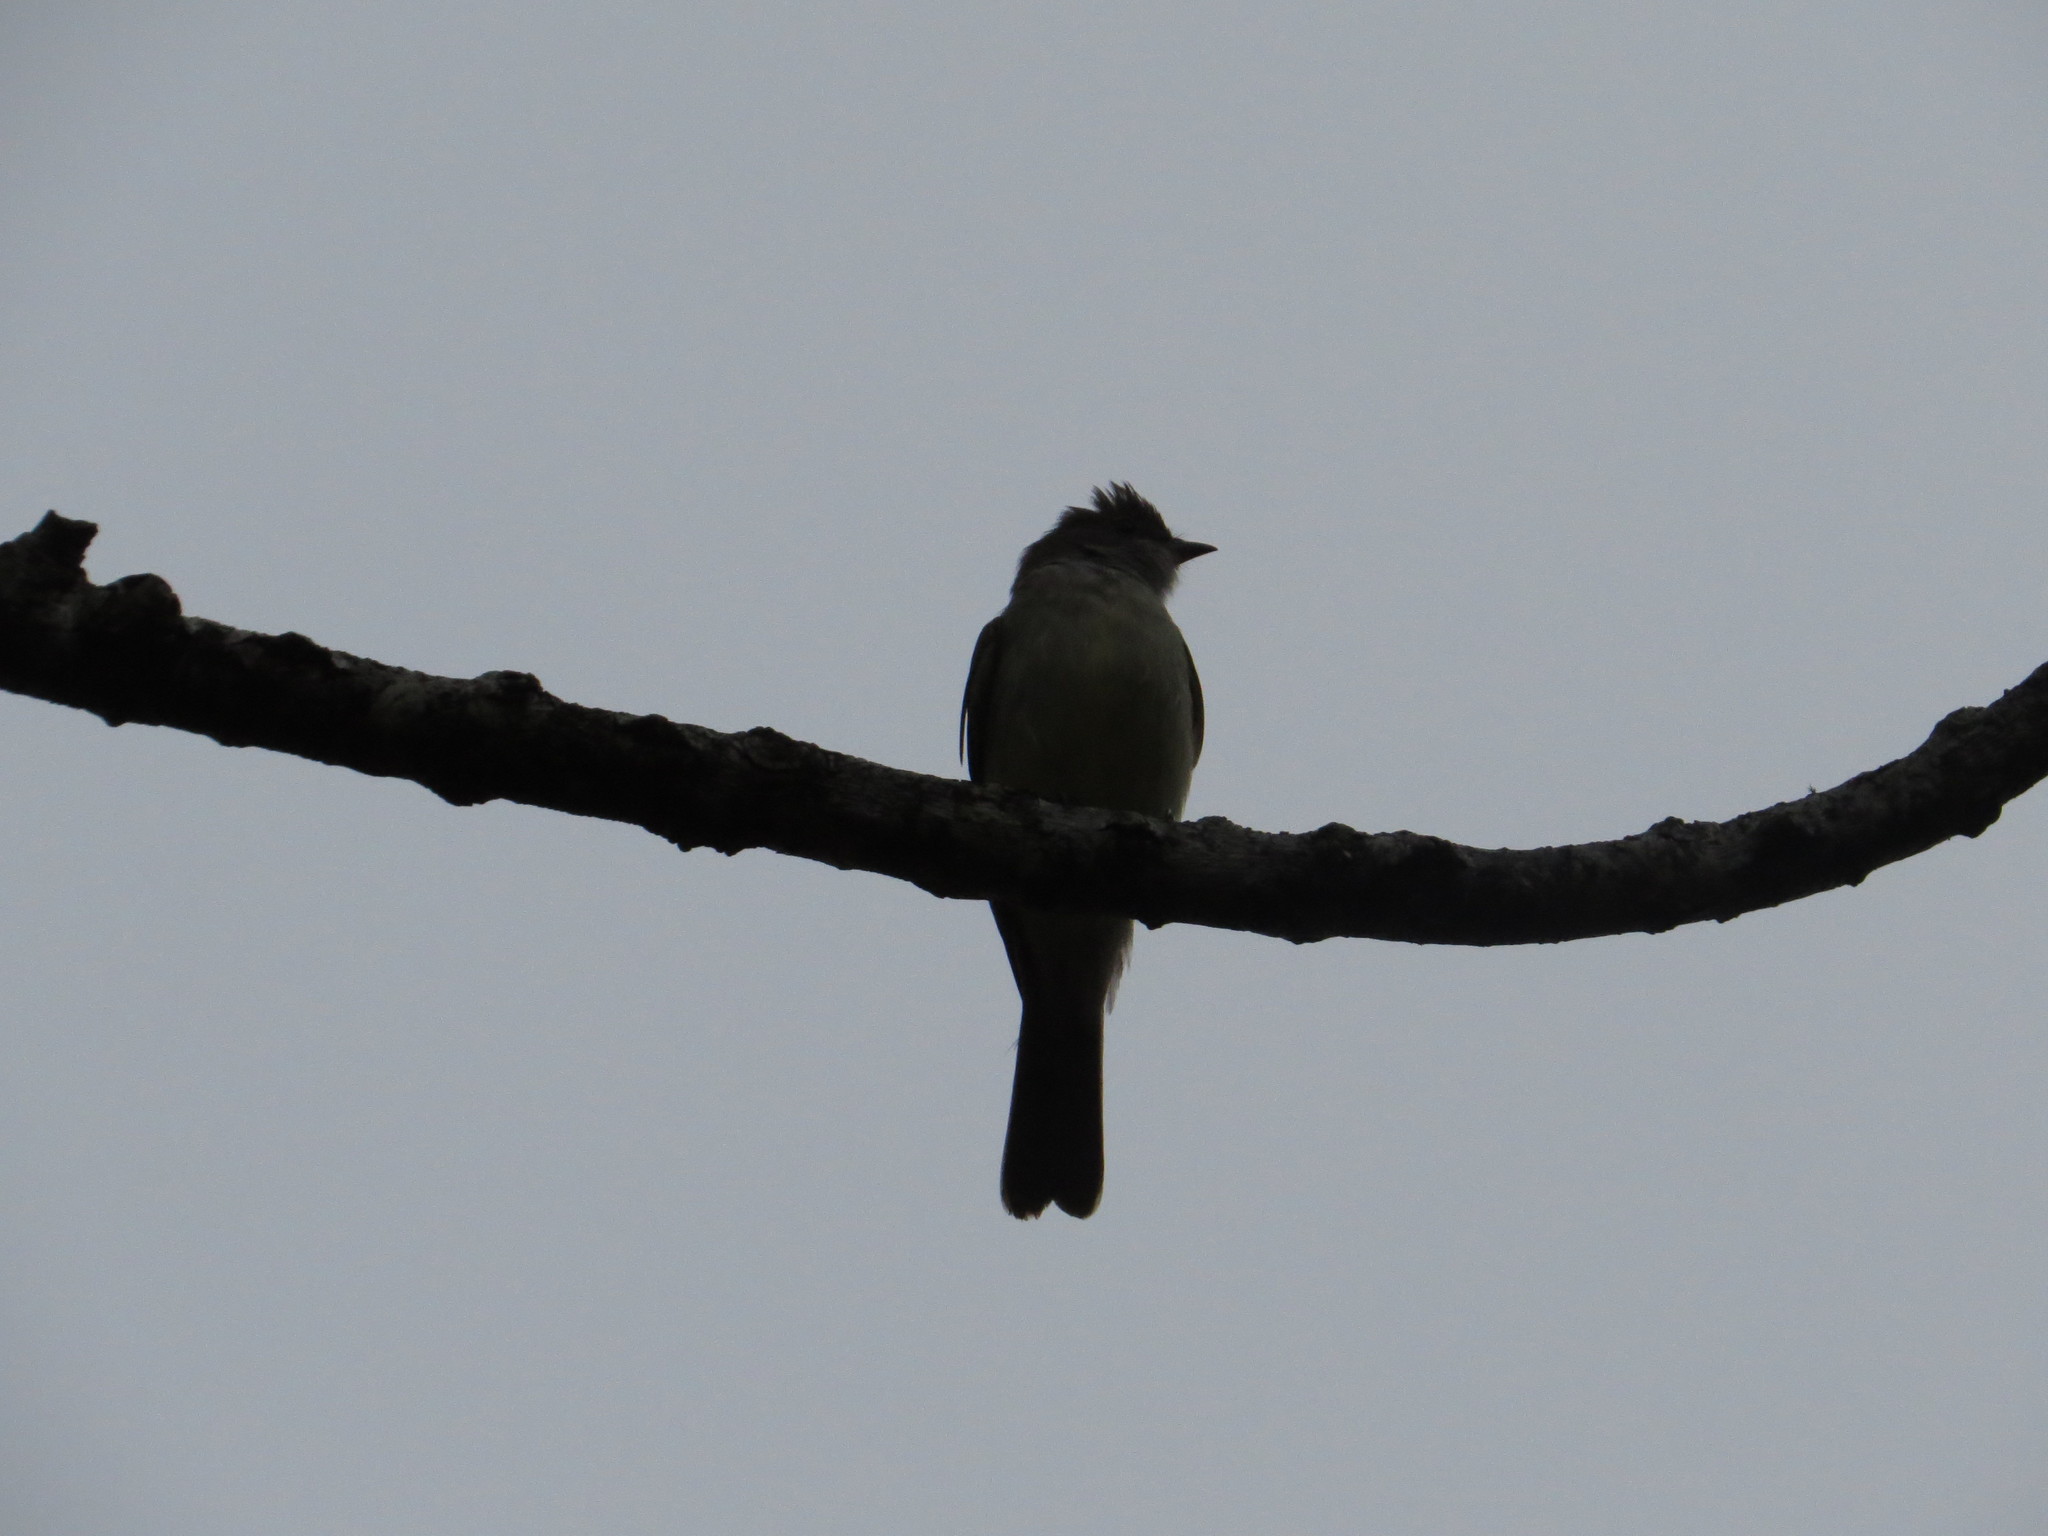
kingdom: Animalia
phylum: Chordata
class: Aves
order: Passeriformes
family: Tyrannidae
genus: Elaenia
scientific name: Elaenia spectabilis
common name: Large elaenia
